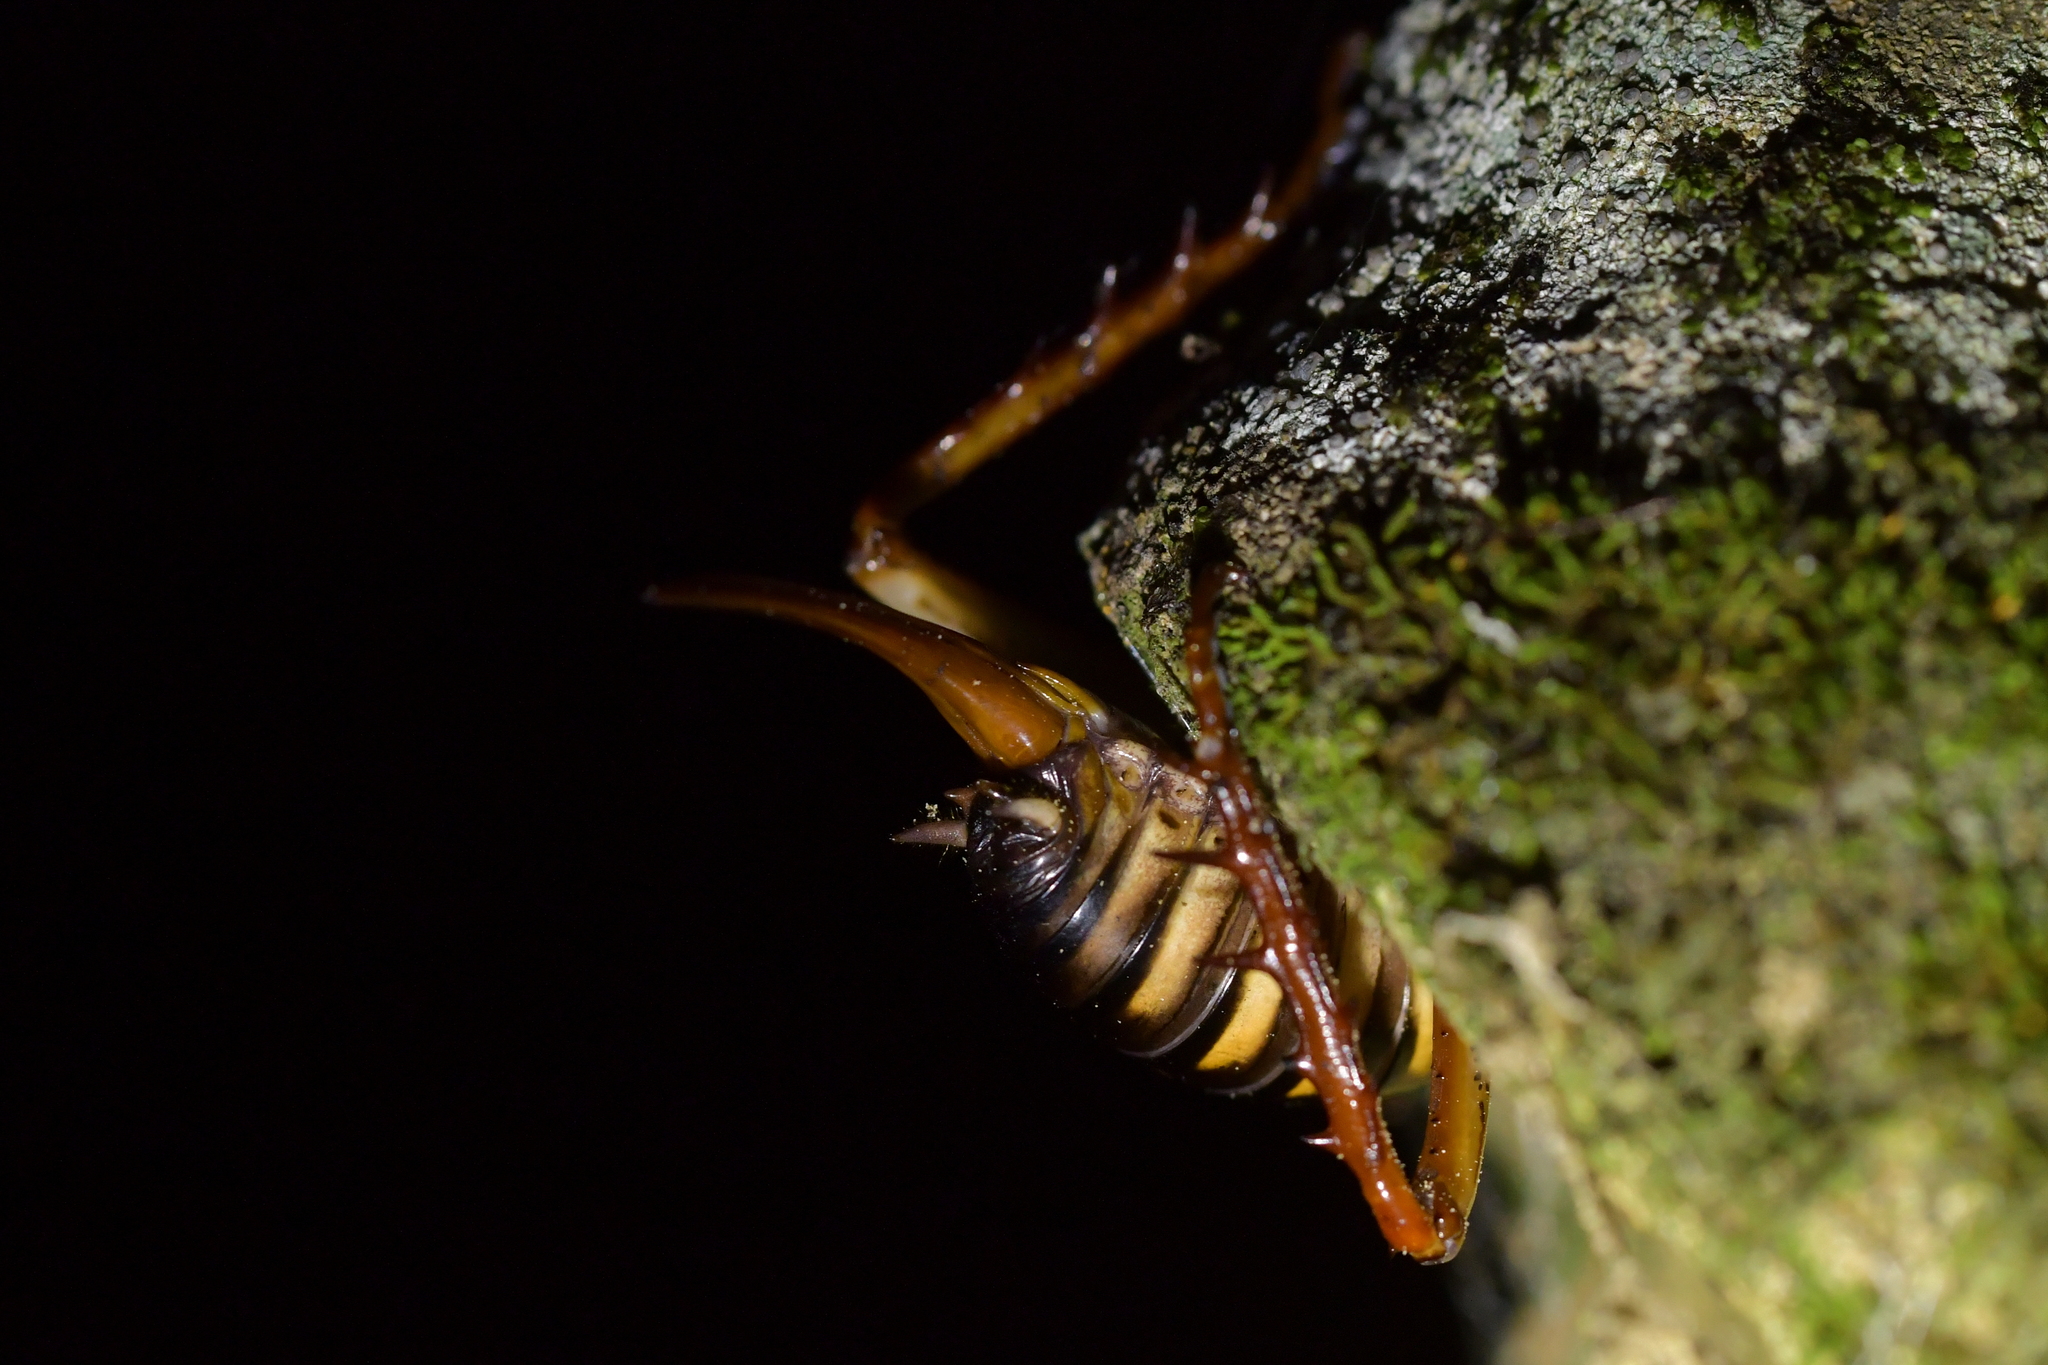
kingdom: Animalia
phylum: Arthropoda
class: Insecta
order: Orthoptera
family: Anostostomatidae
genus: Hemideina
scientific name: Hemideina crassidens
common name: Wellington tree weta
